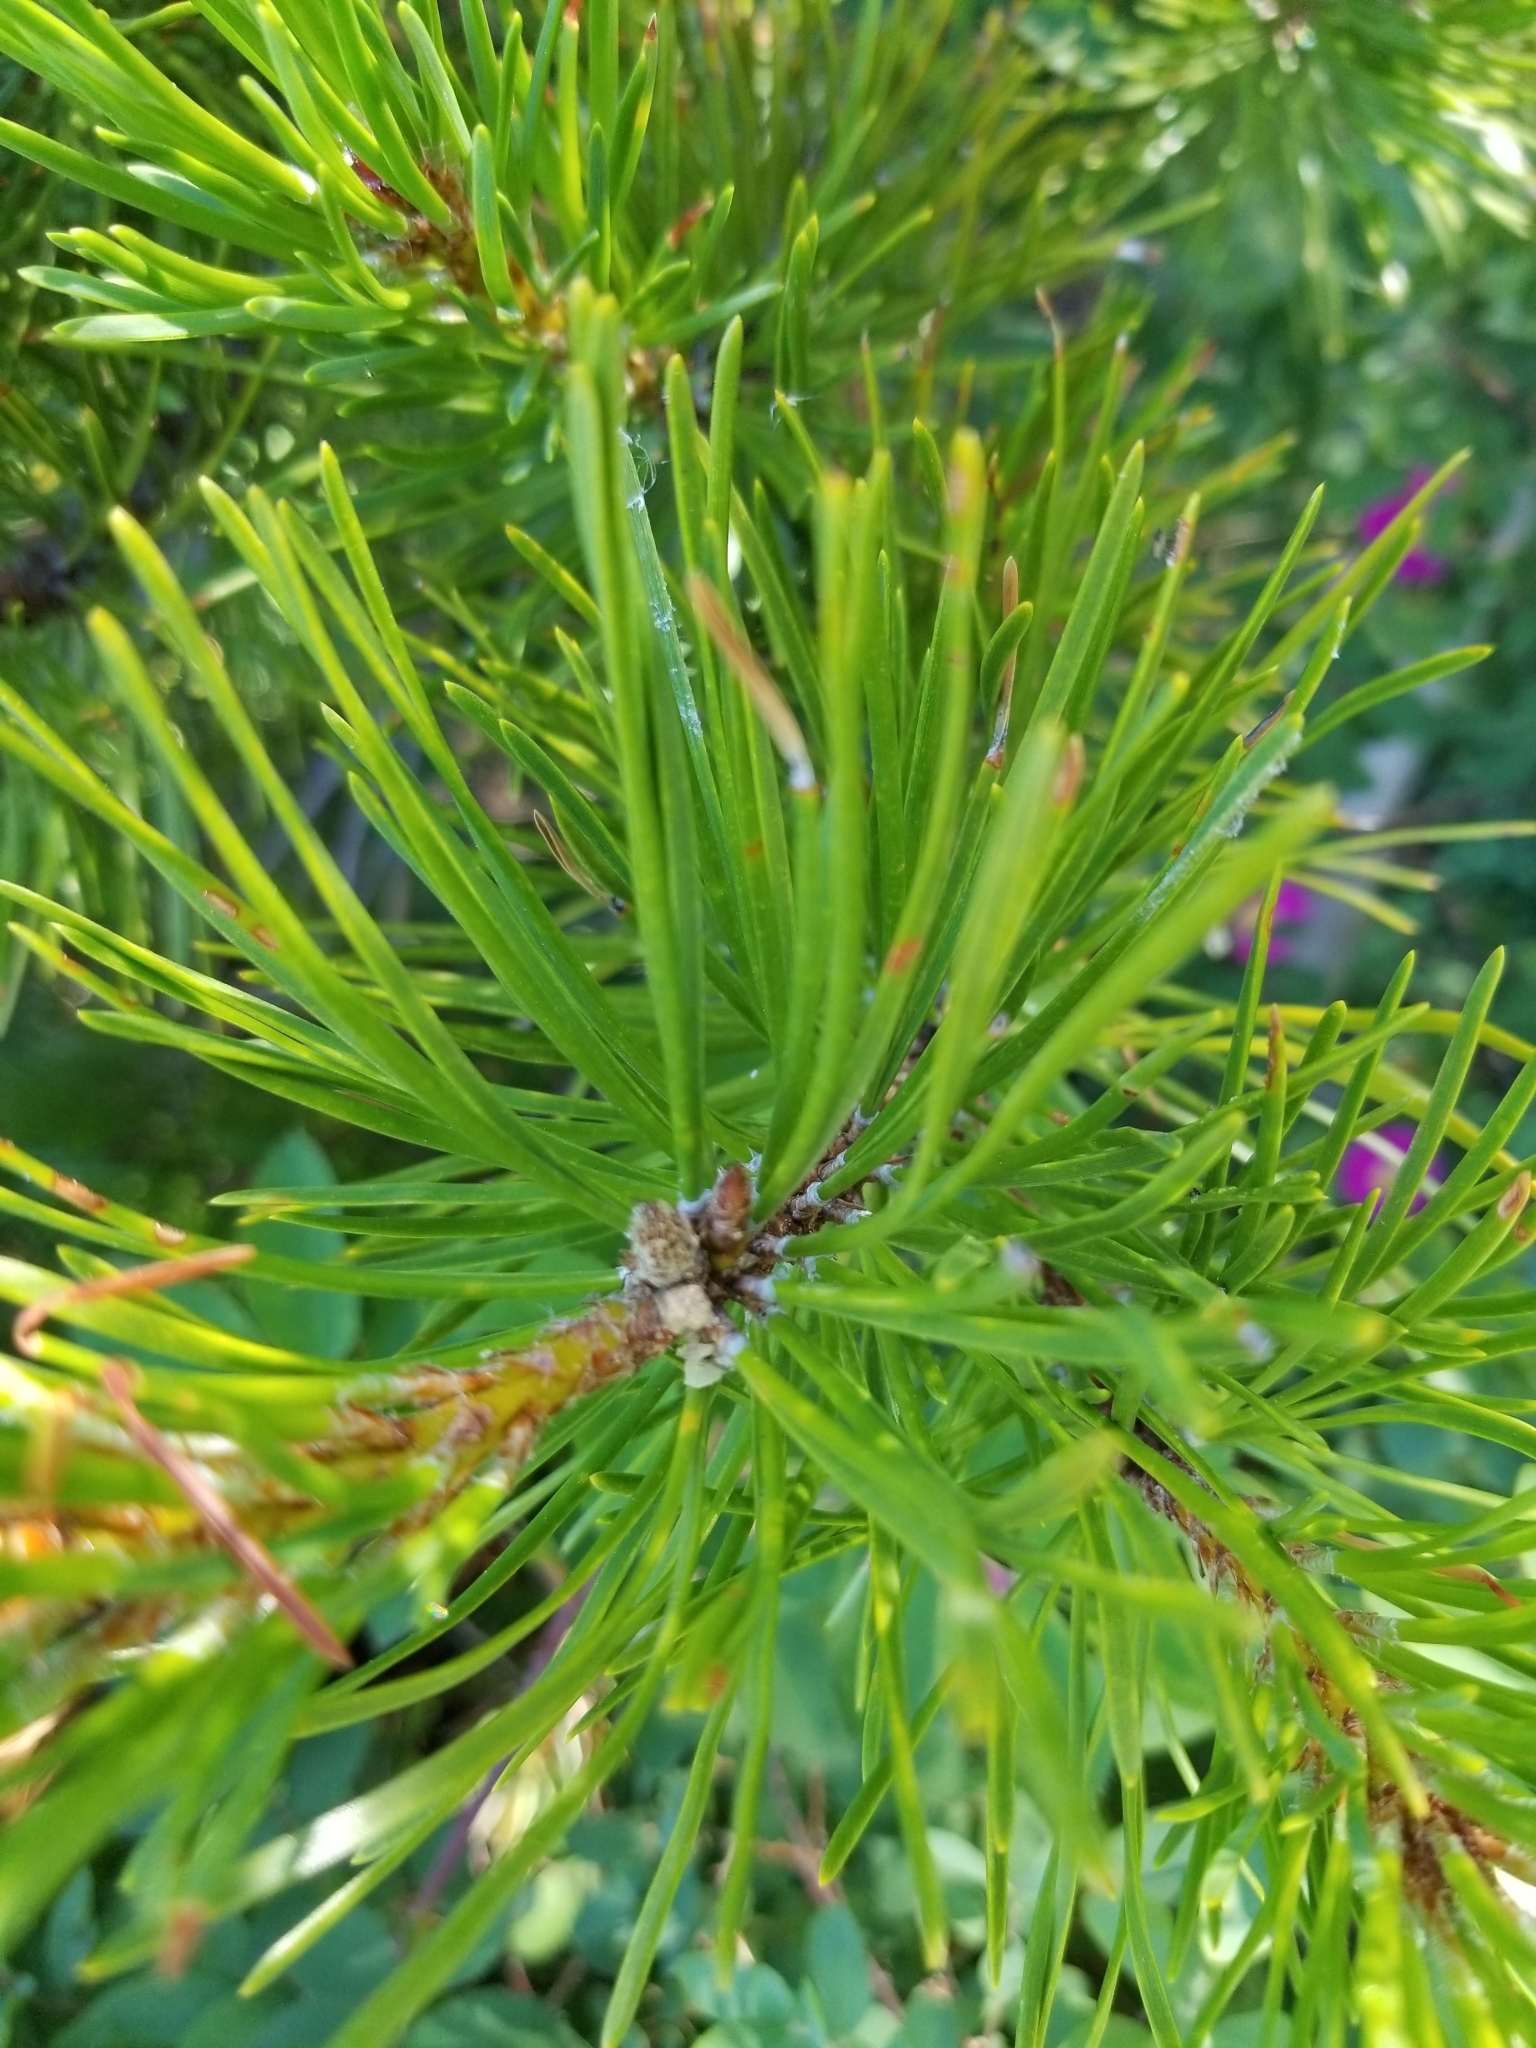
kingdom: Plantae
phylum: Tracheophyta
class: Pinopsida
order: Pinales
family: Pinaceae
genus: Pinus
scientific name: Pinus contorta
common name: Lodgepole pine
